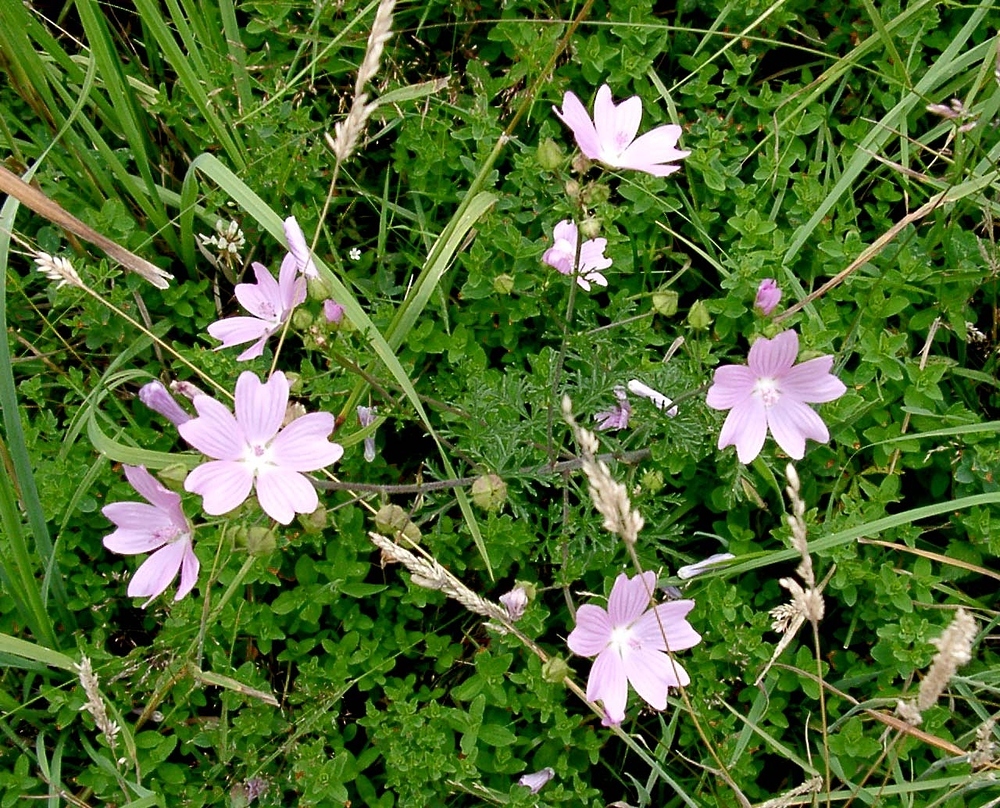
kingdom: Plantae
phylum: Tracheophyta
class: Magnoliopsida
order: Malvales
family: Malvaceae
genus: Malva
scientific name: Malva moschata
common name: Musk mallow
